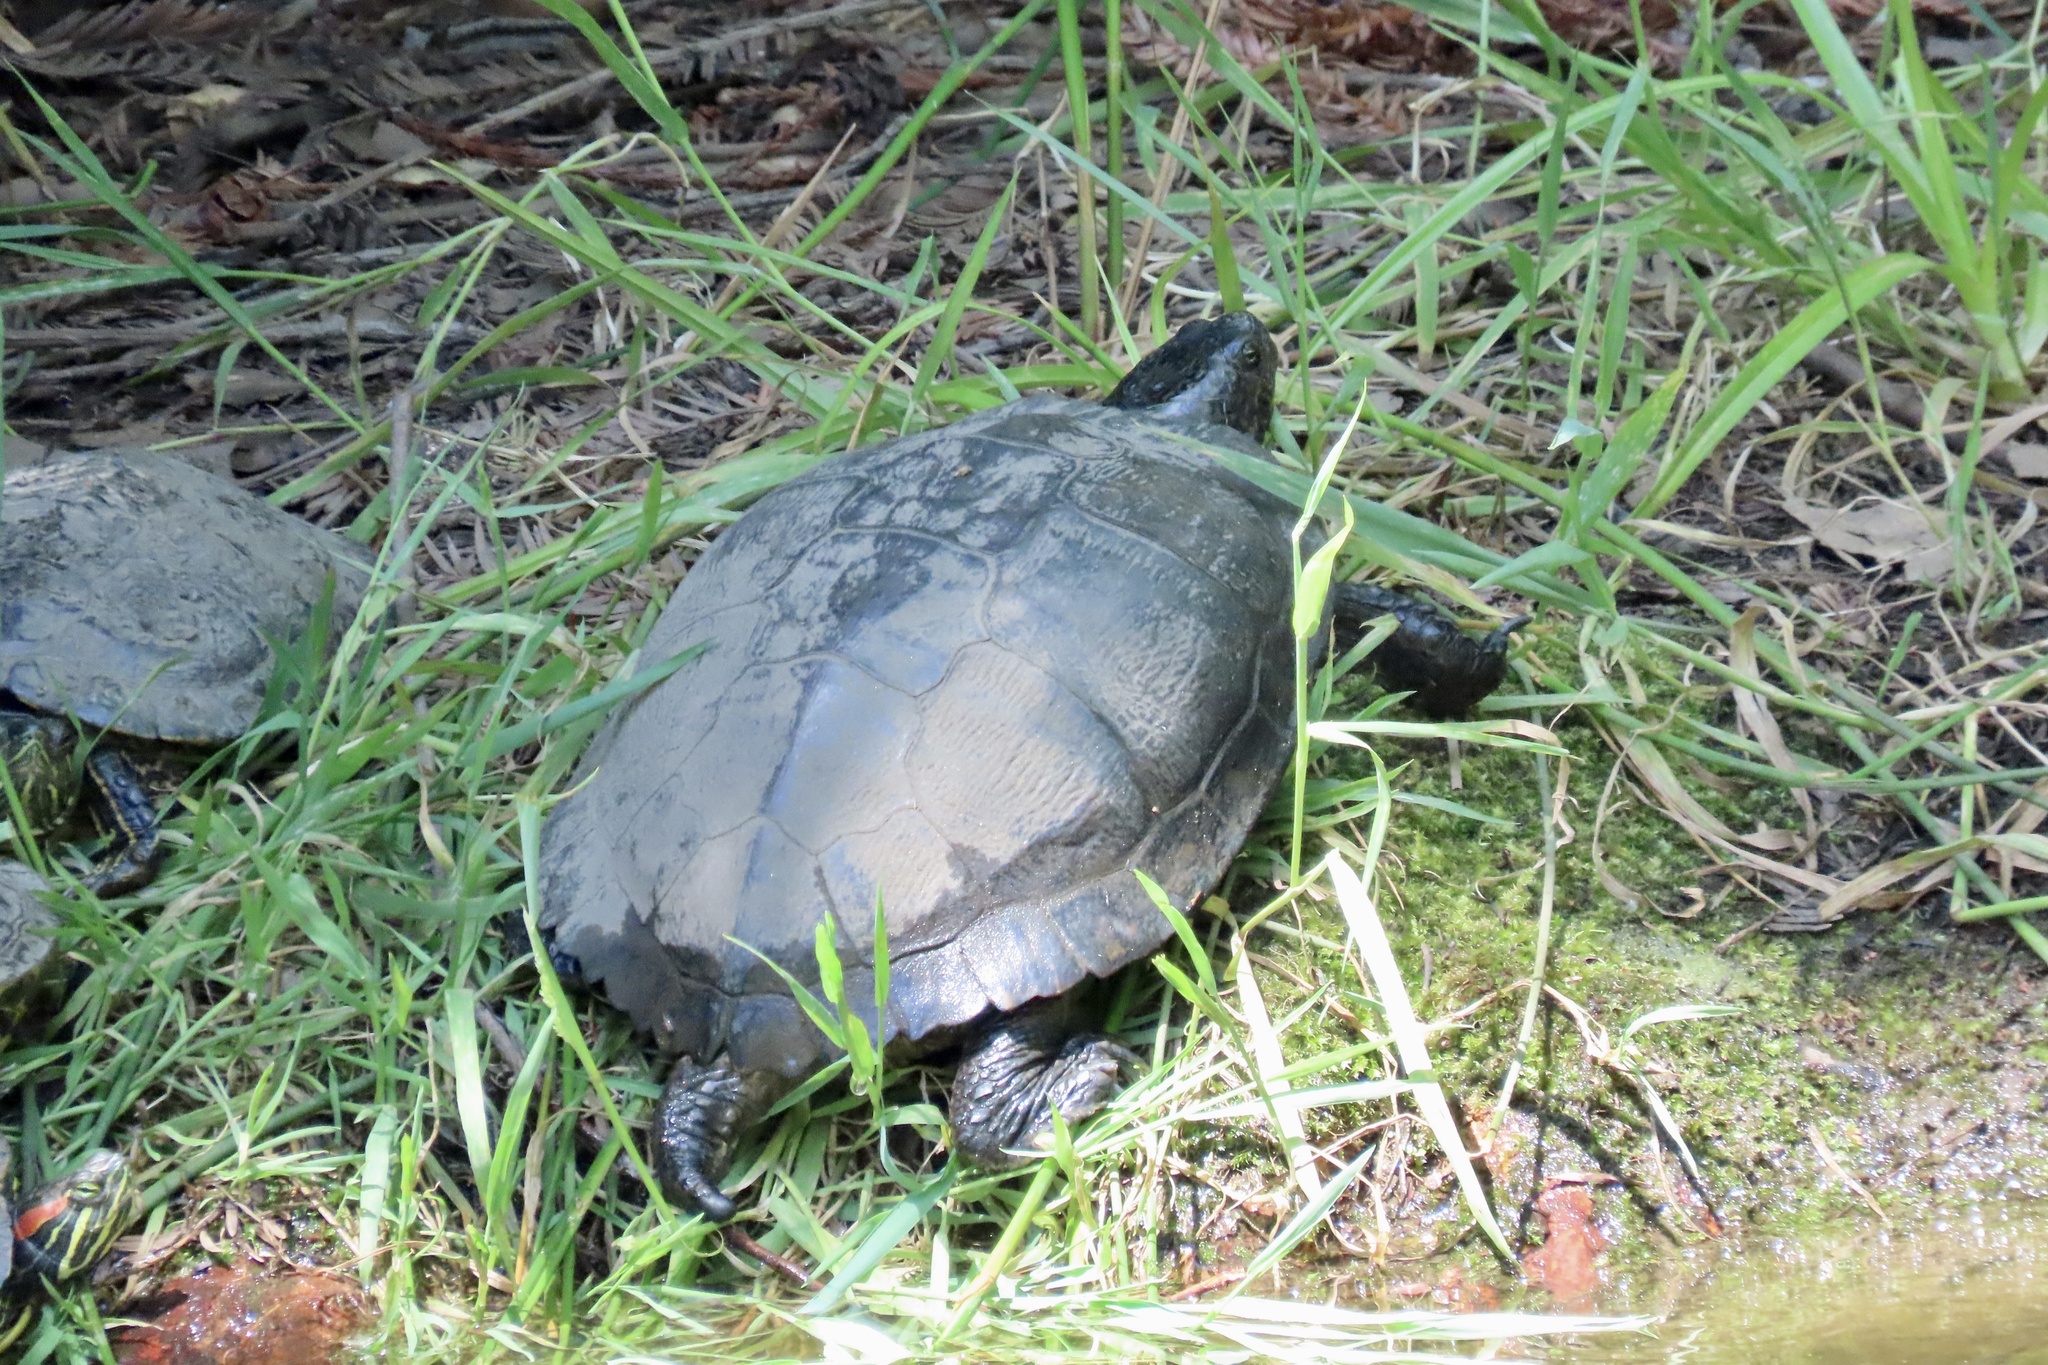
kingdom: Animalia
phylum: Chordata
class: Testudines
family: Emydidae
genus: Trachemys
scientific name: Trachemys scripta
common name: Slider
